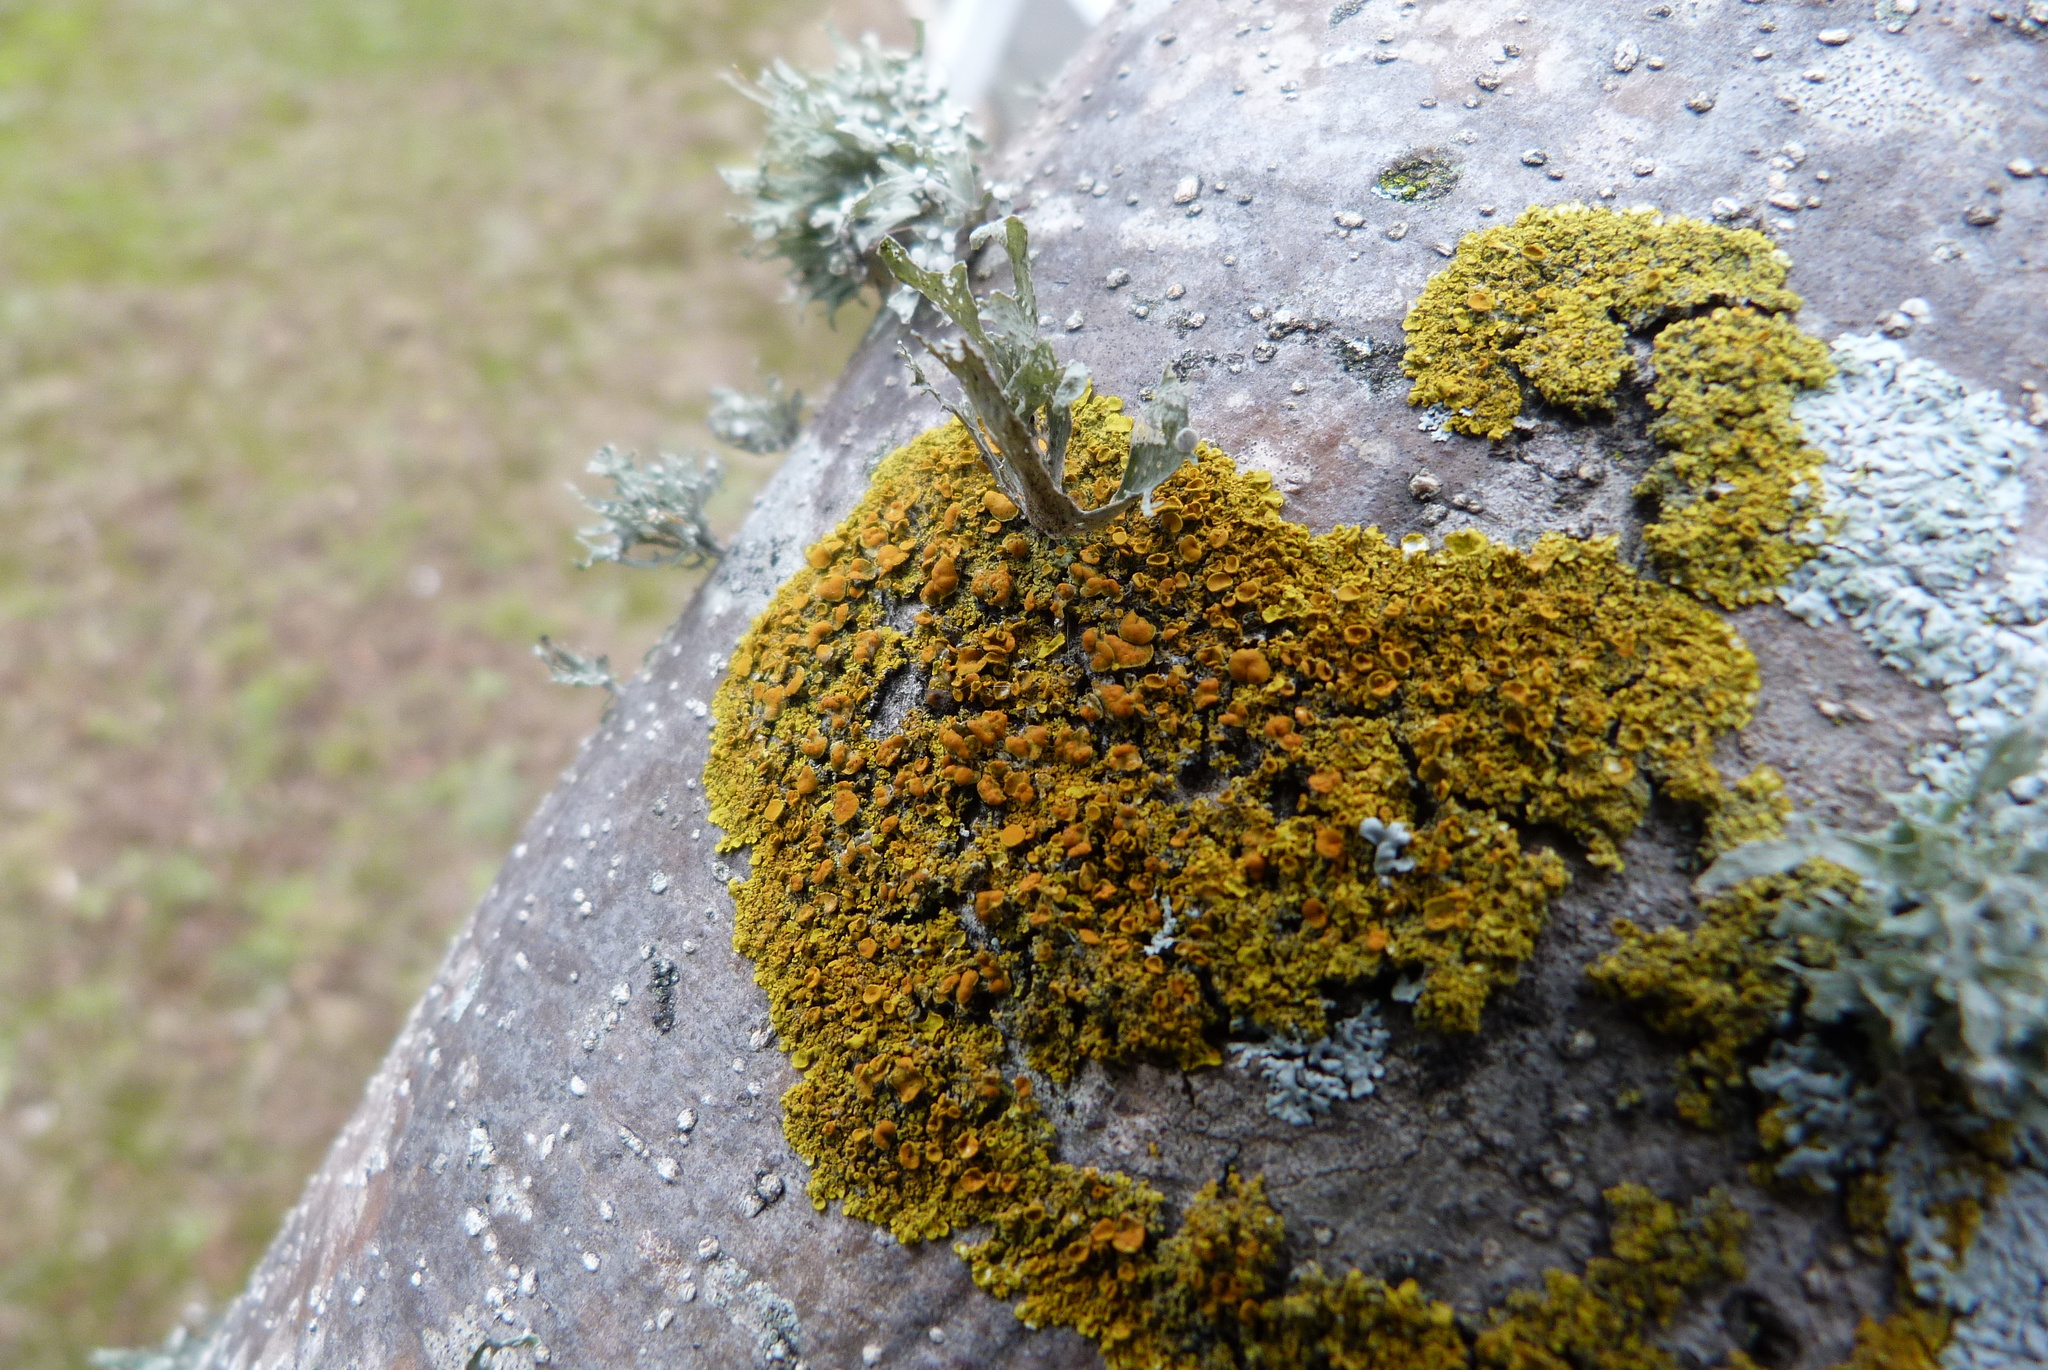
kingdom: Fungi
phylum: Ascomycota
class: Lecanoromycetes
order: Teloschistales
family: Teloschistaceae
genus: Xanthoria
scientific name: Xanthoria parietina
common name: Common orange lichen
